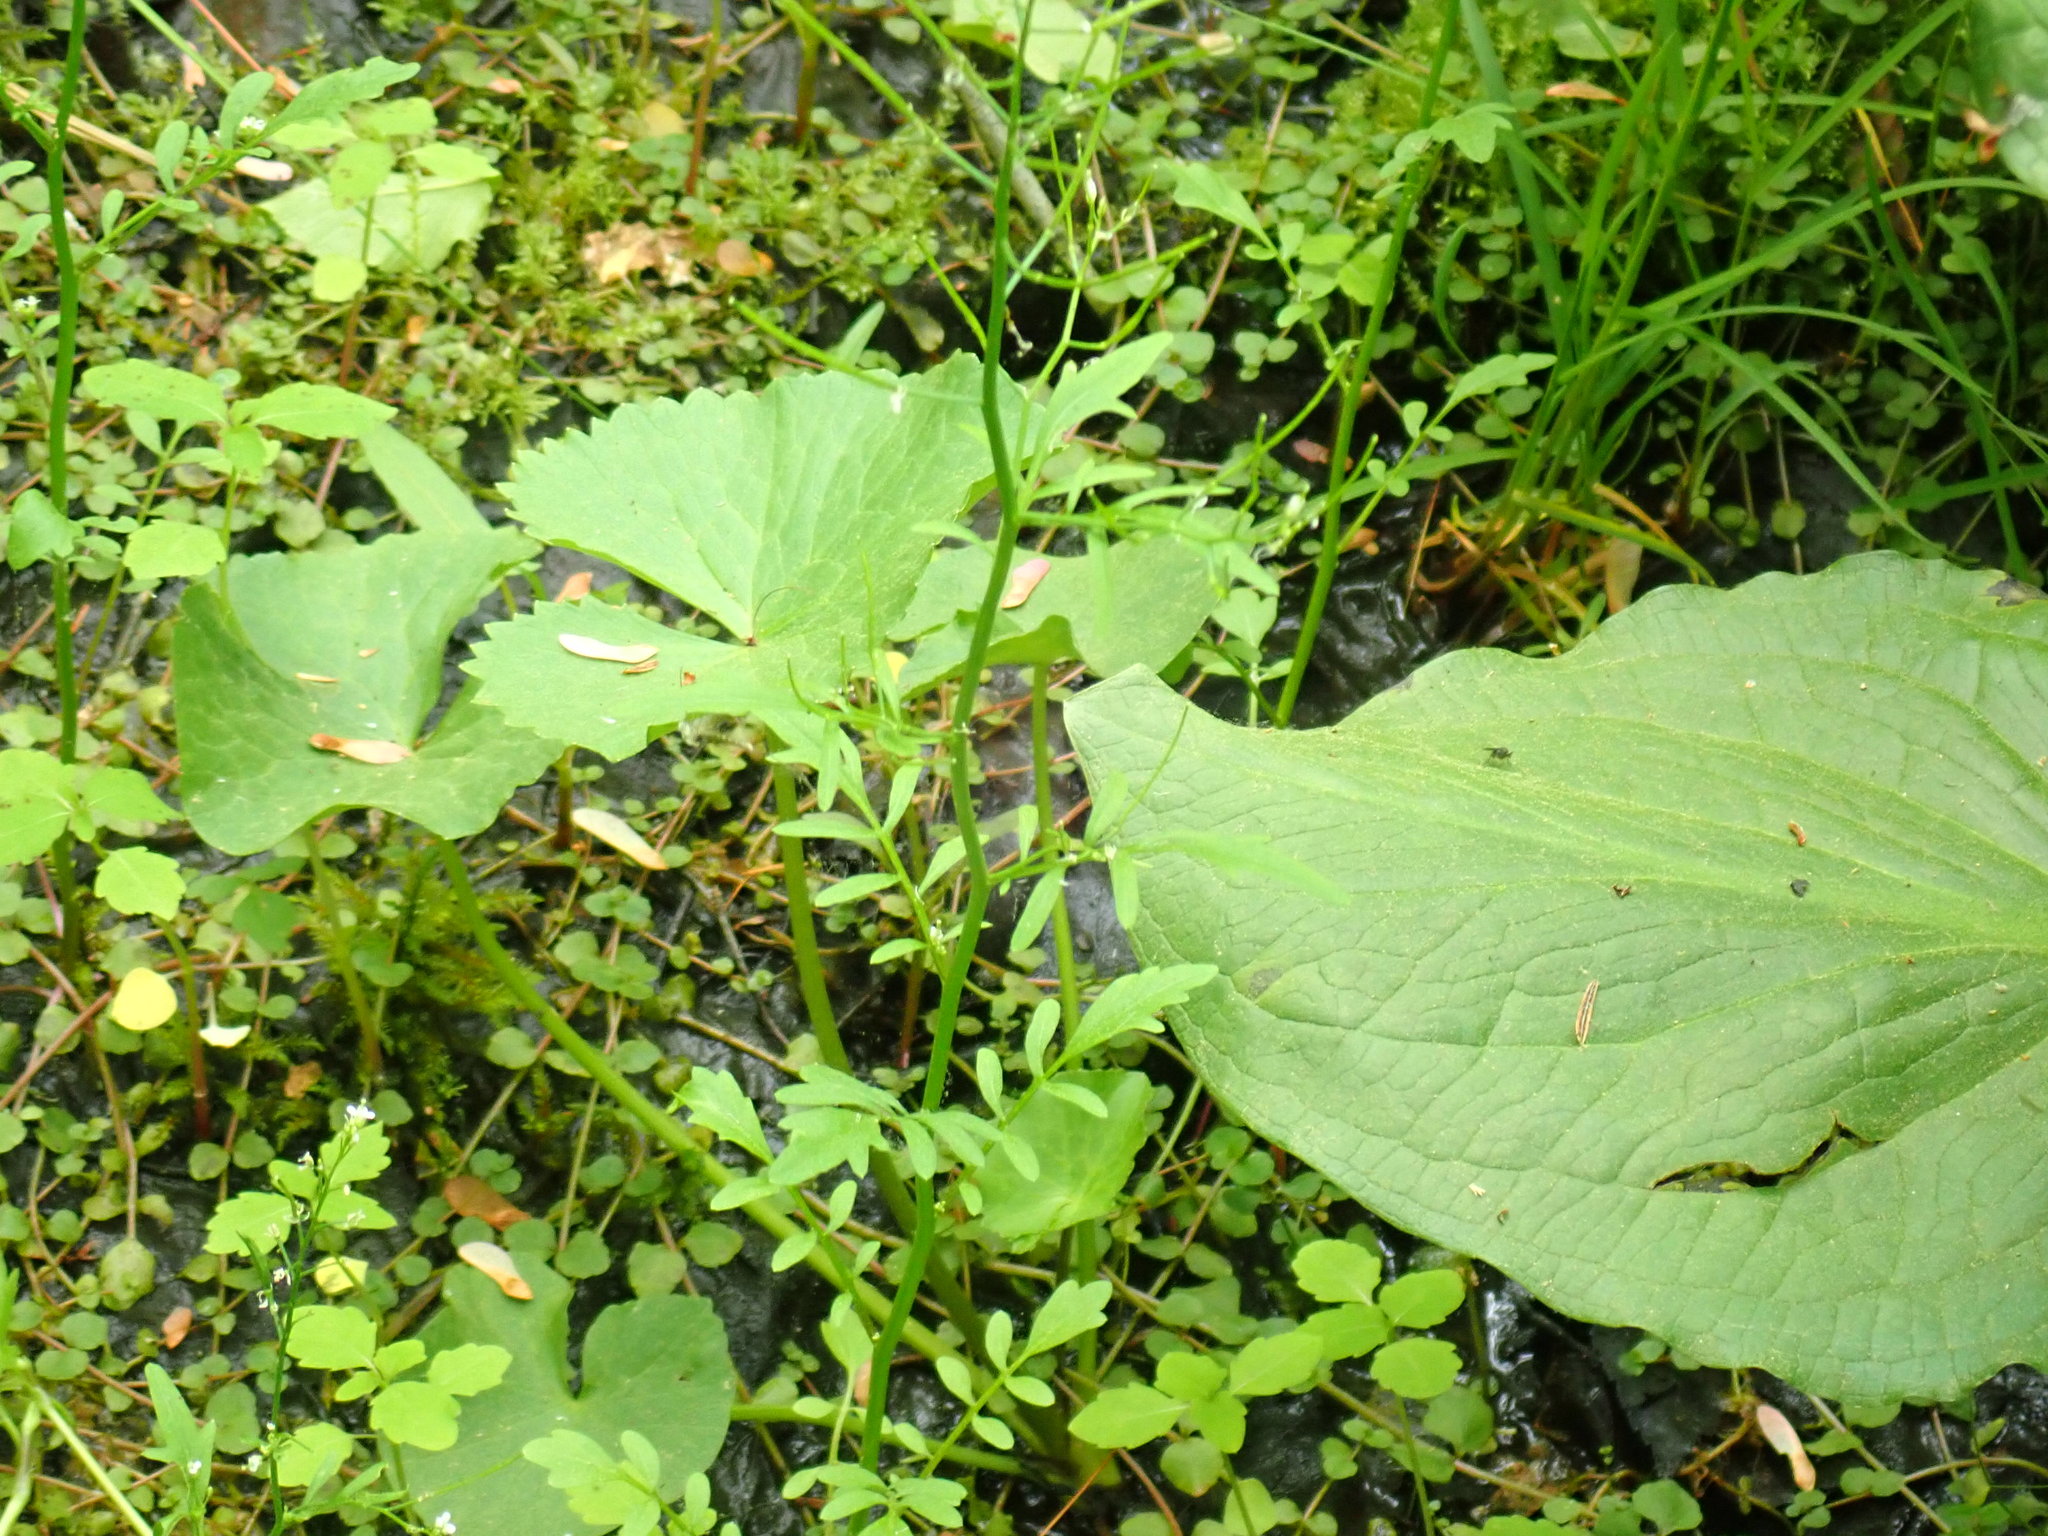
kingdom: Plantae
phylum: Tracheophyta
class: Magnoliopsida
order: Brassicales
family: Brassicaceae
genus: Cardamine
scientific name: Cardamine pensylvanica
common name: Pennsylvania bittercress
